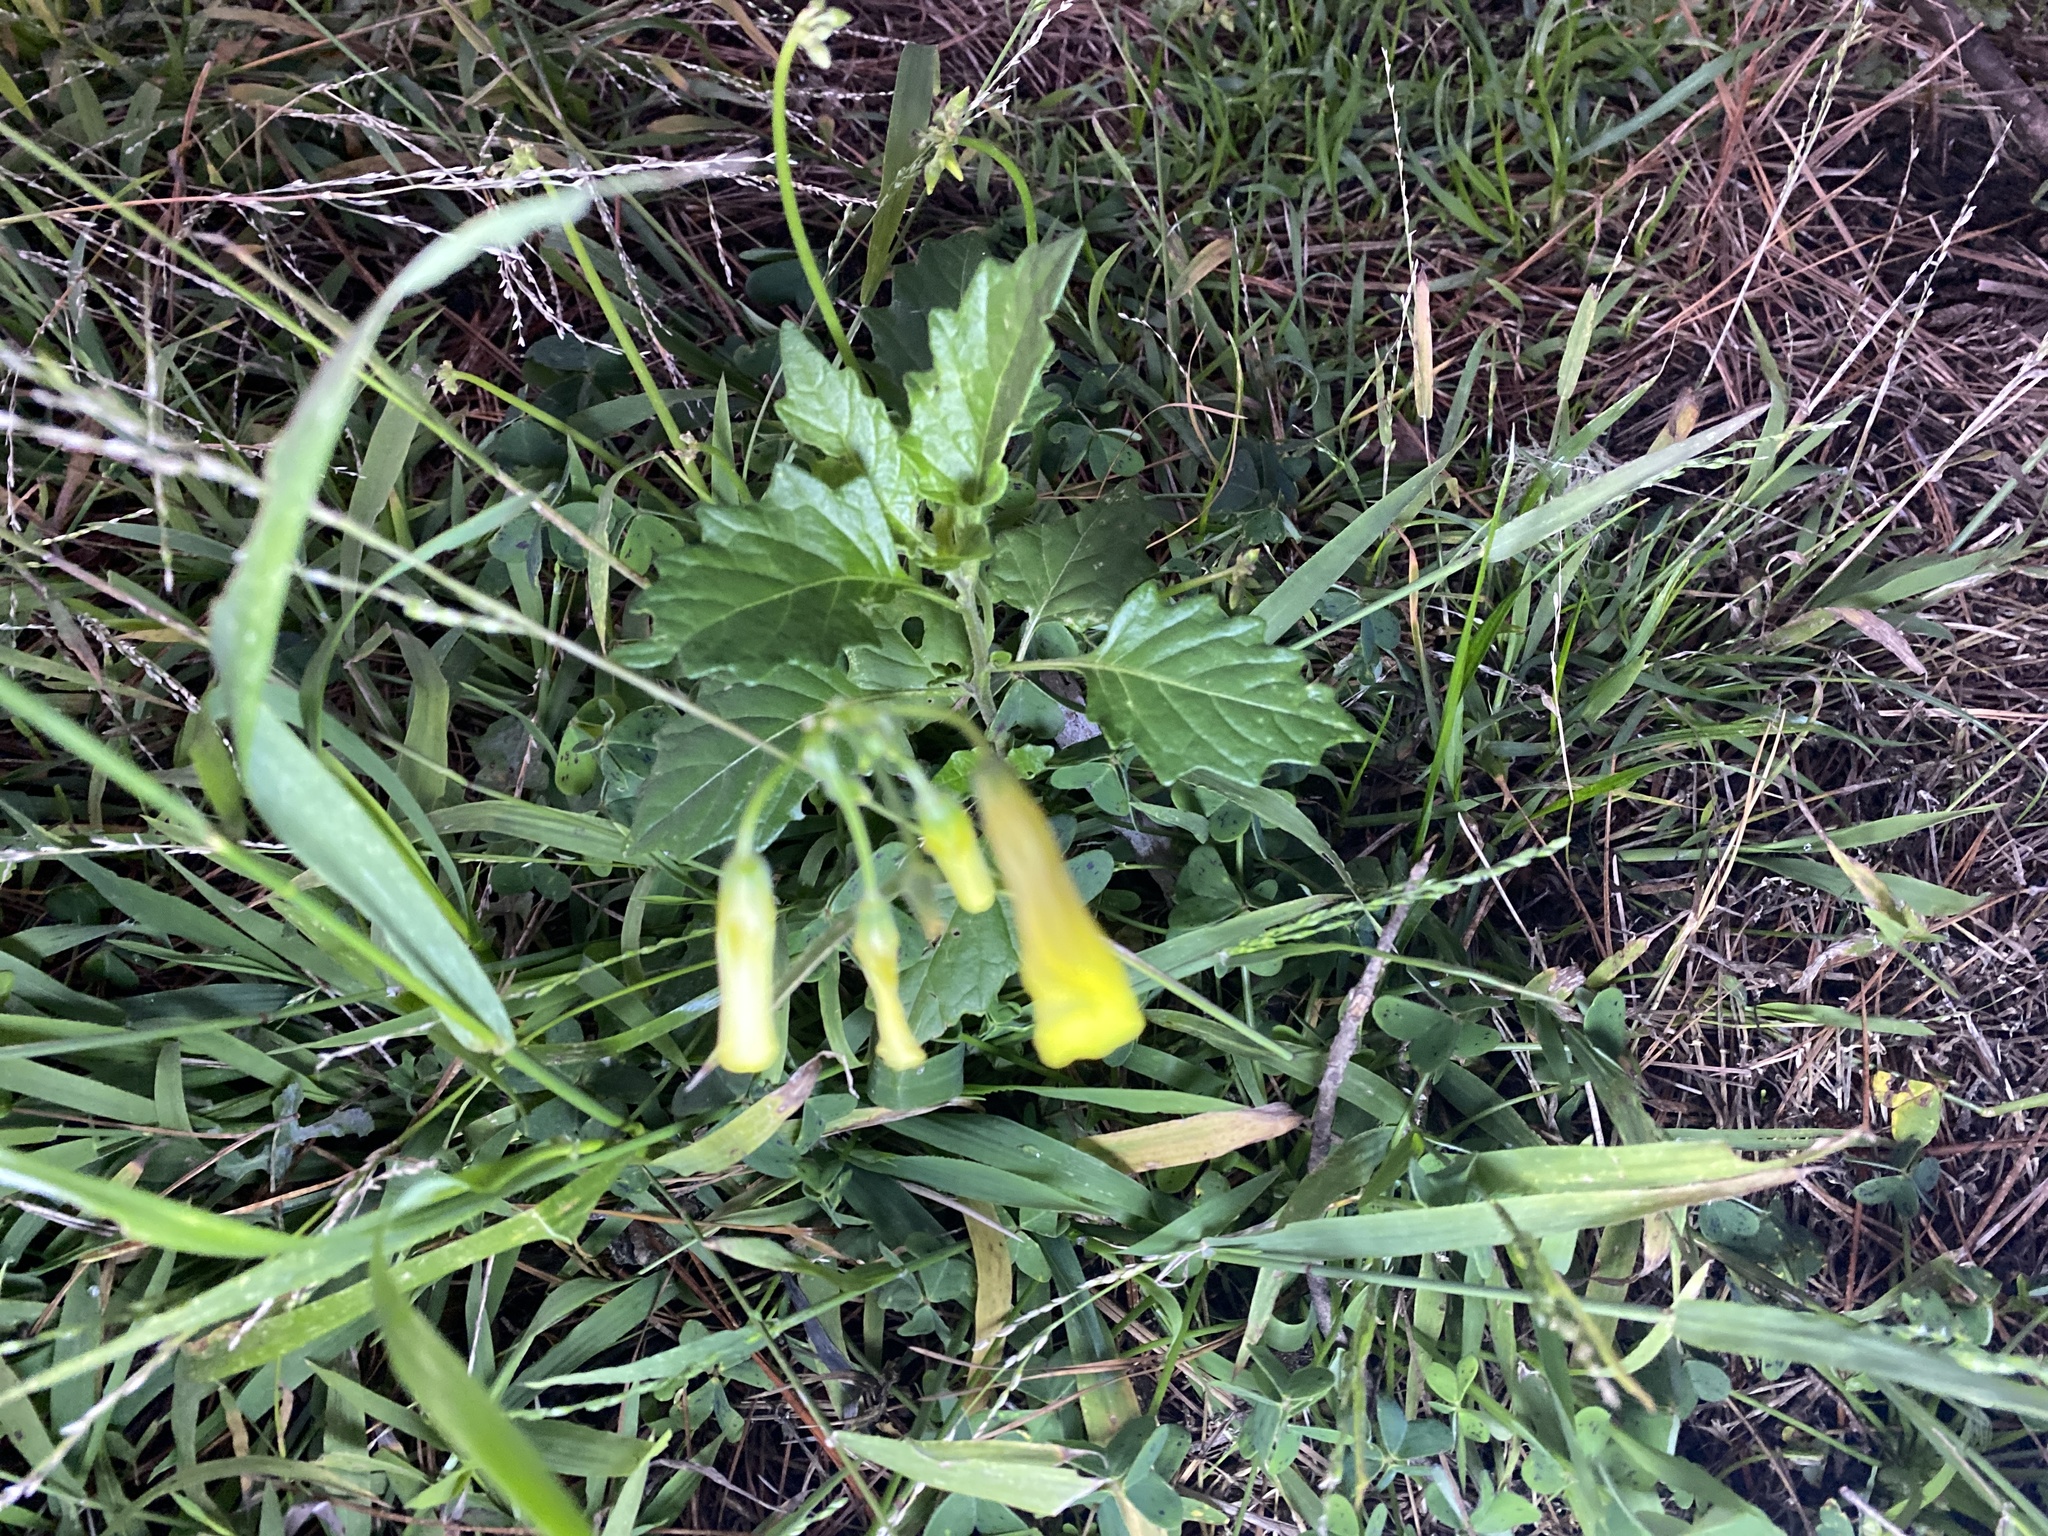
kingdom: Plantae
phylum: Tracheophyta
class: Magnoliopsida
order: Oxalidales
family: Oxalidaceae
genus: Oxalis
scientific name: Oxalis pes-caprae
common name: Bermuda-buttercup
